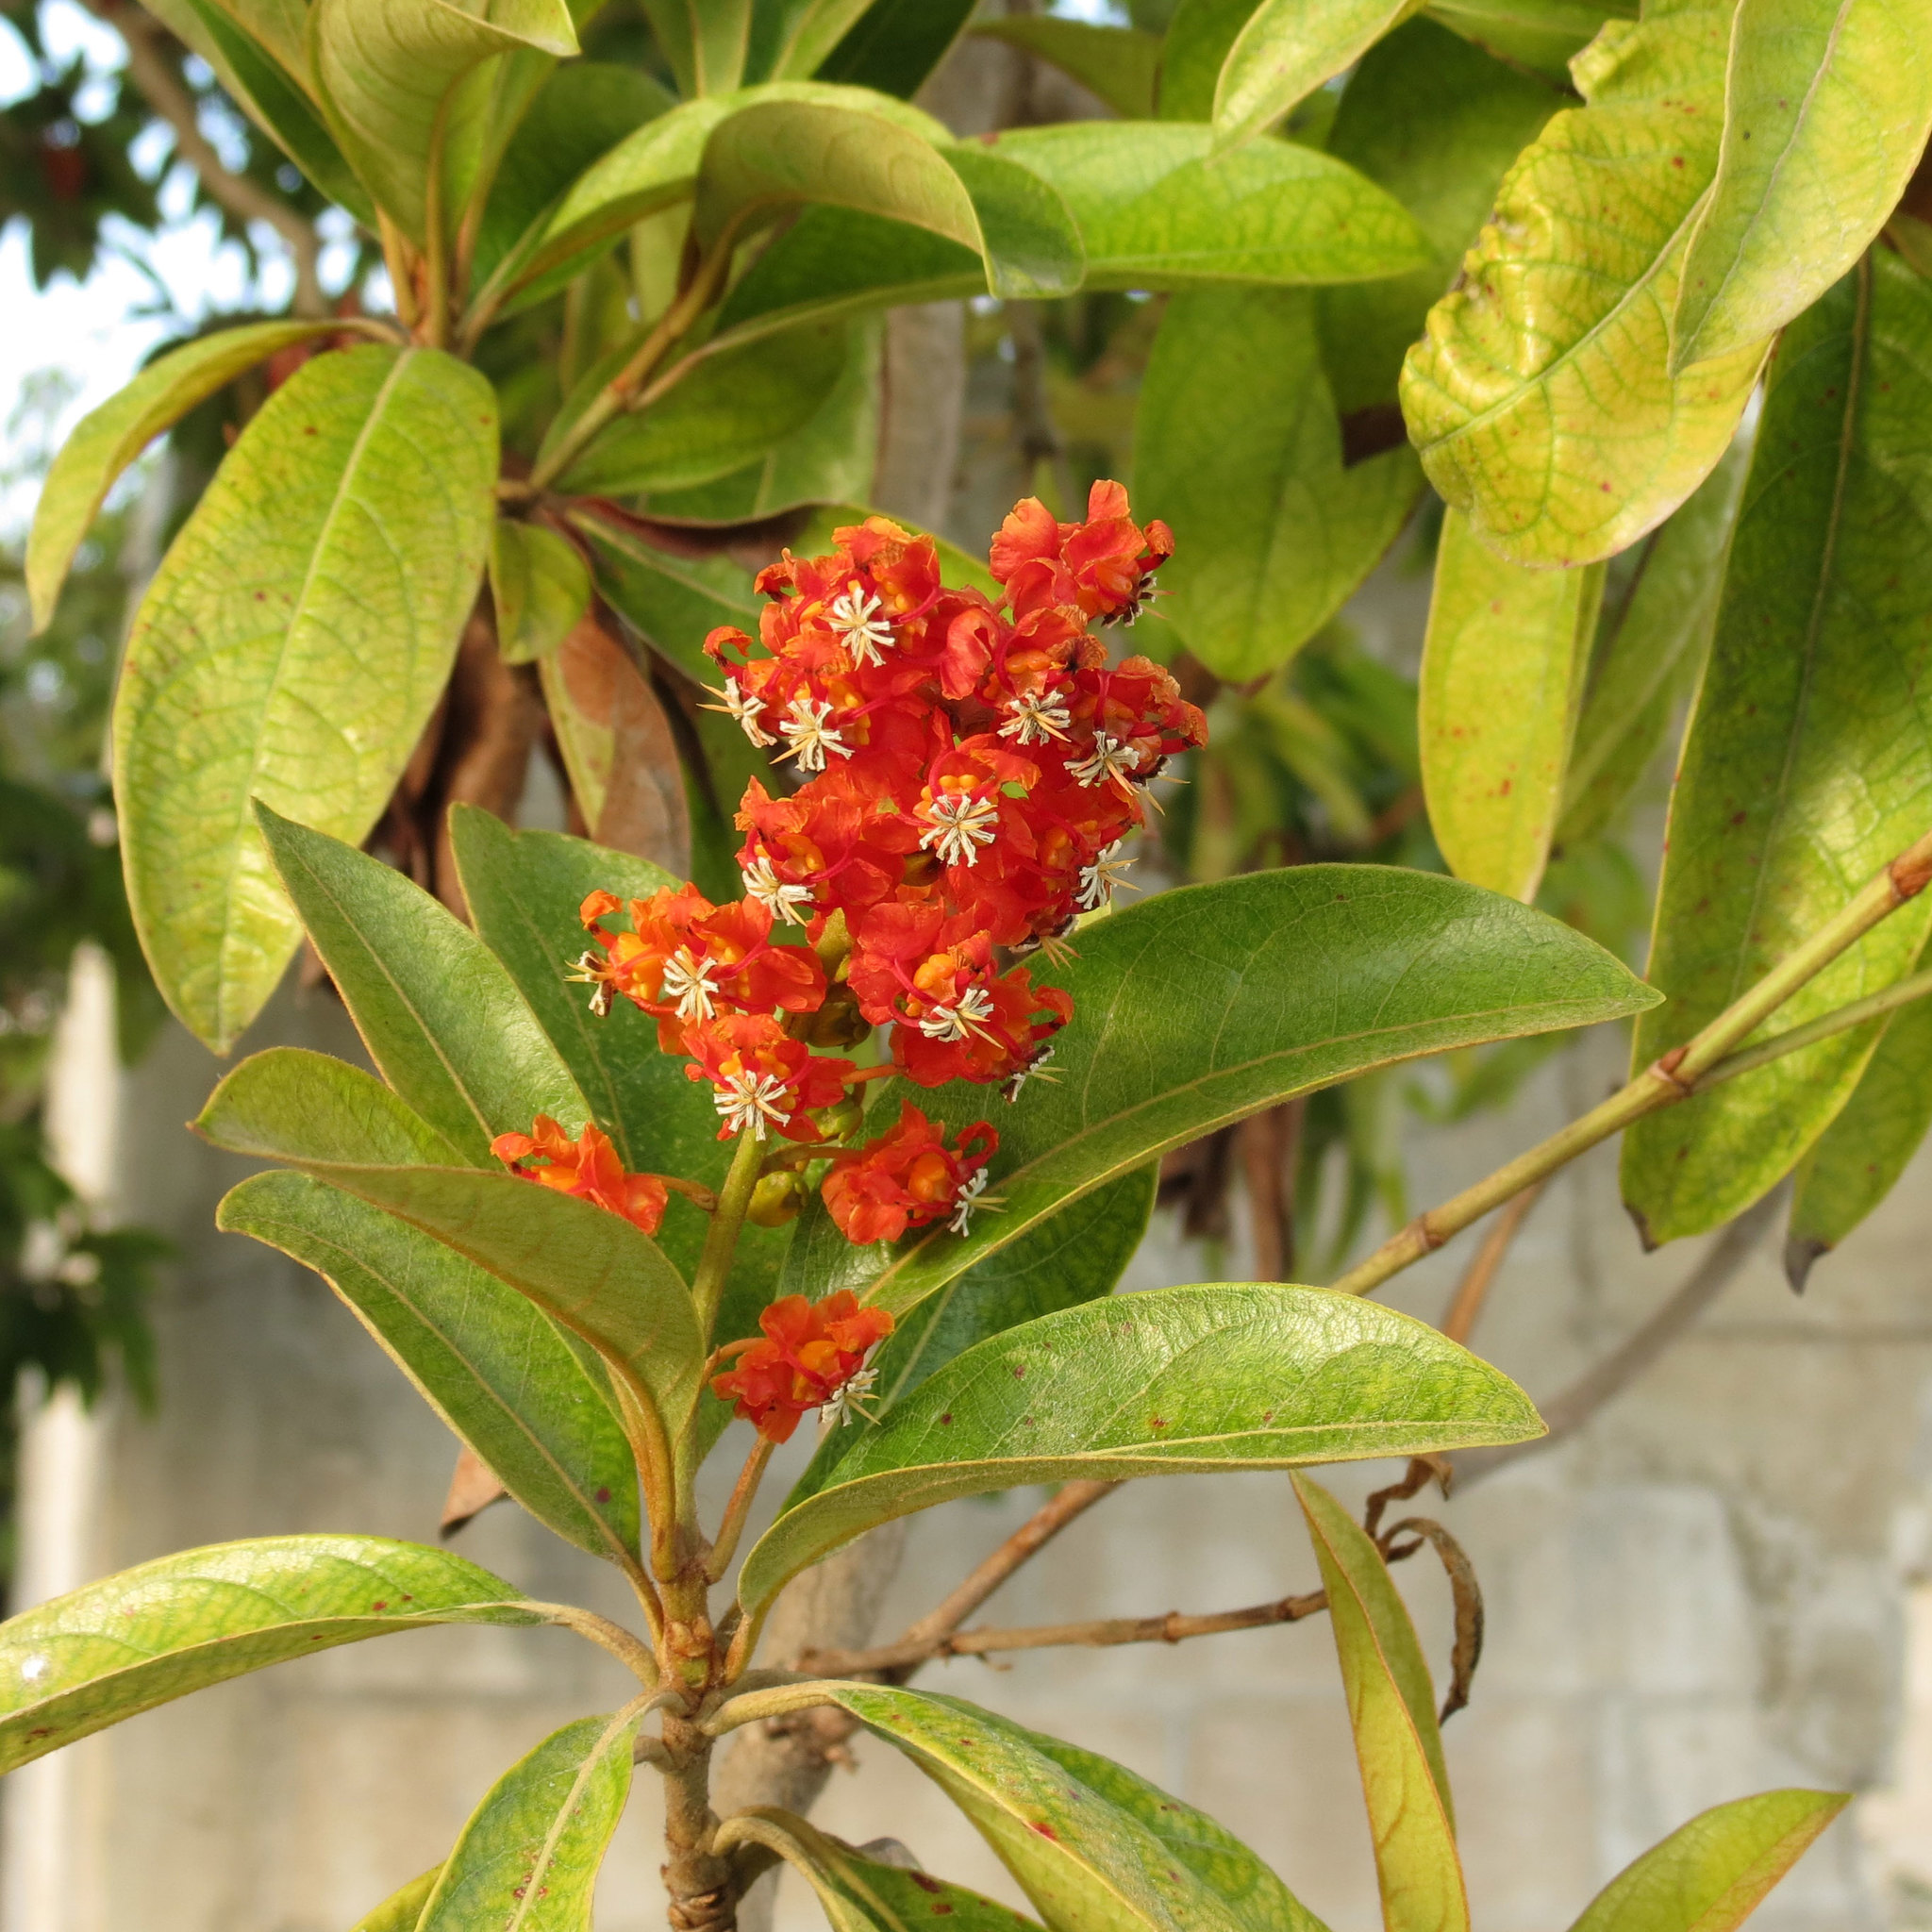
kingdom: Plantae
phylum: Tracheophyta
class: Magnoliopsida
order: Malpighiales
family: Malpighiaceae
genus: Byrsonima
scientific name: Byrsonima crassifolia
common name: Golden spoon
